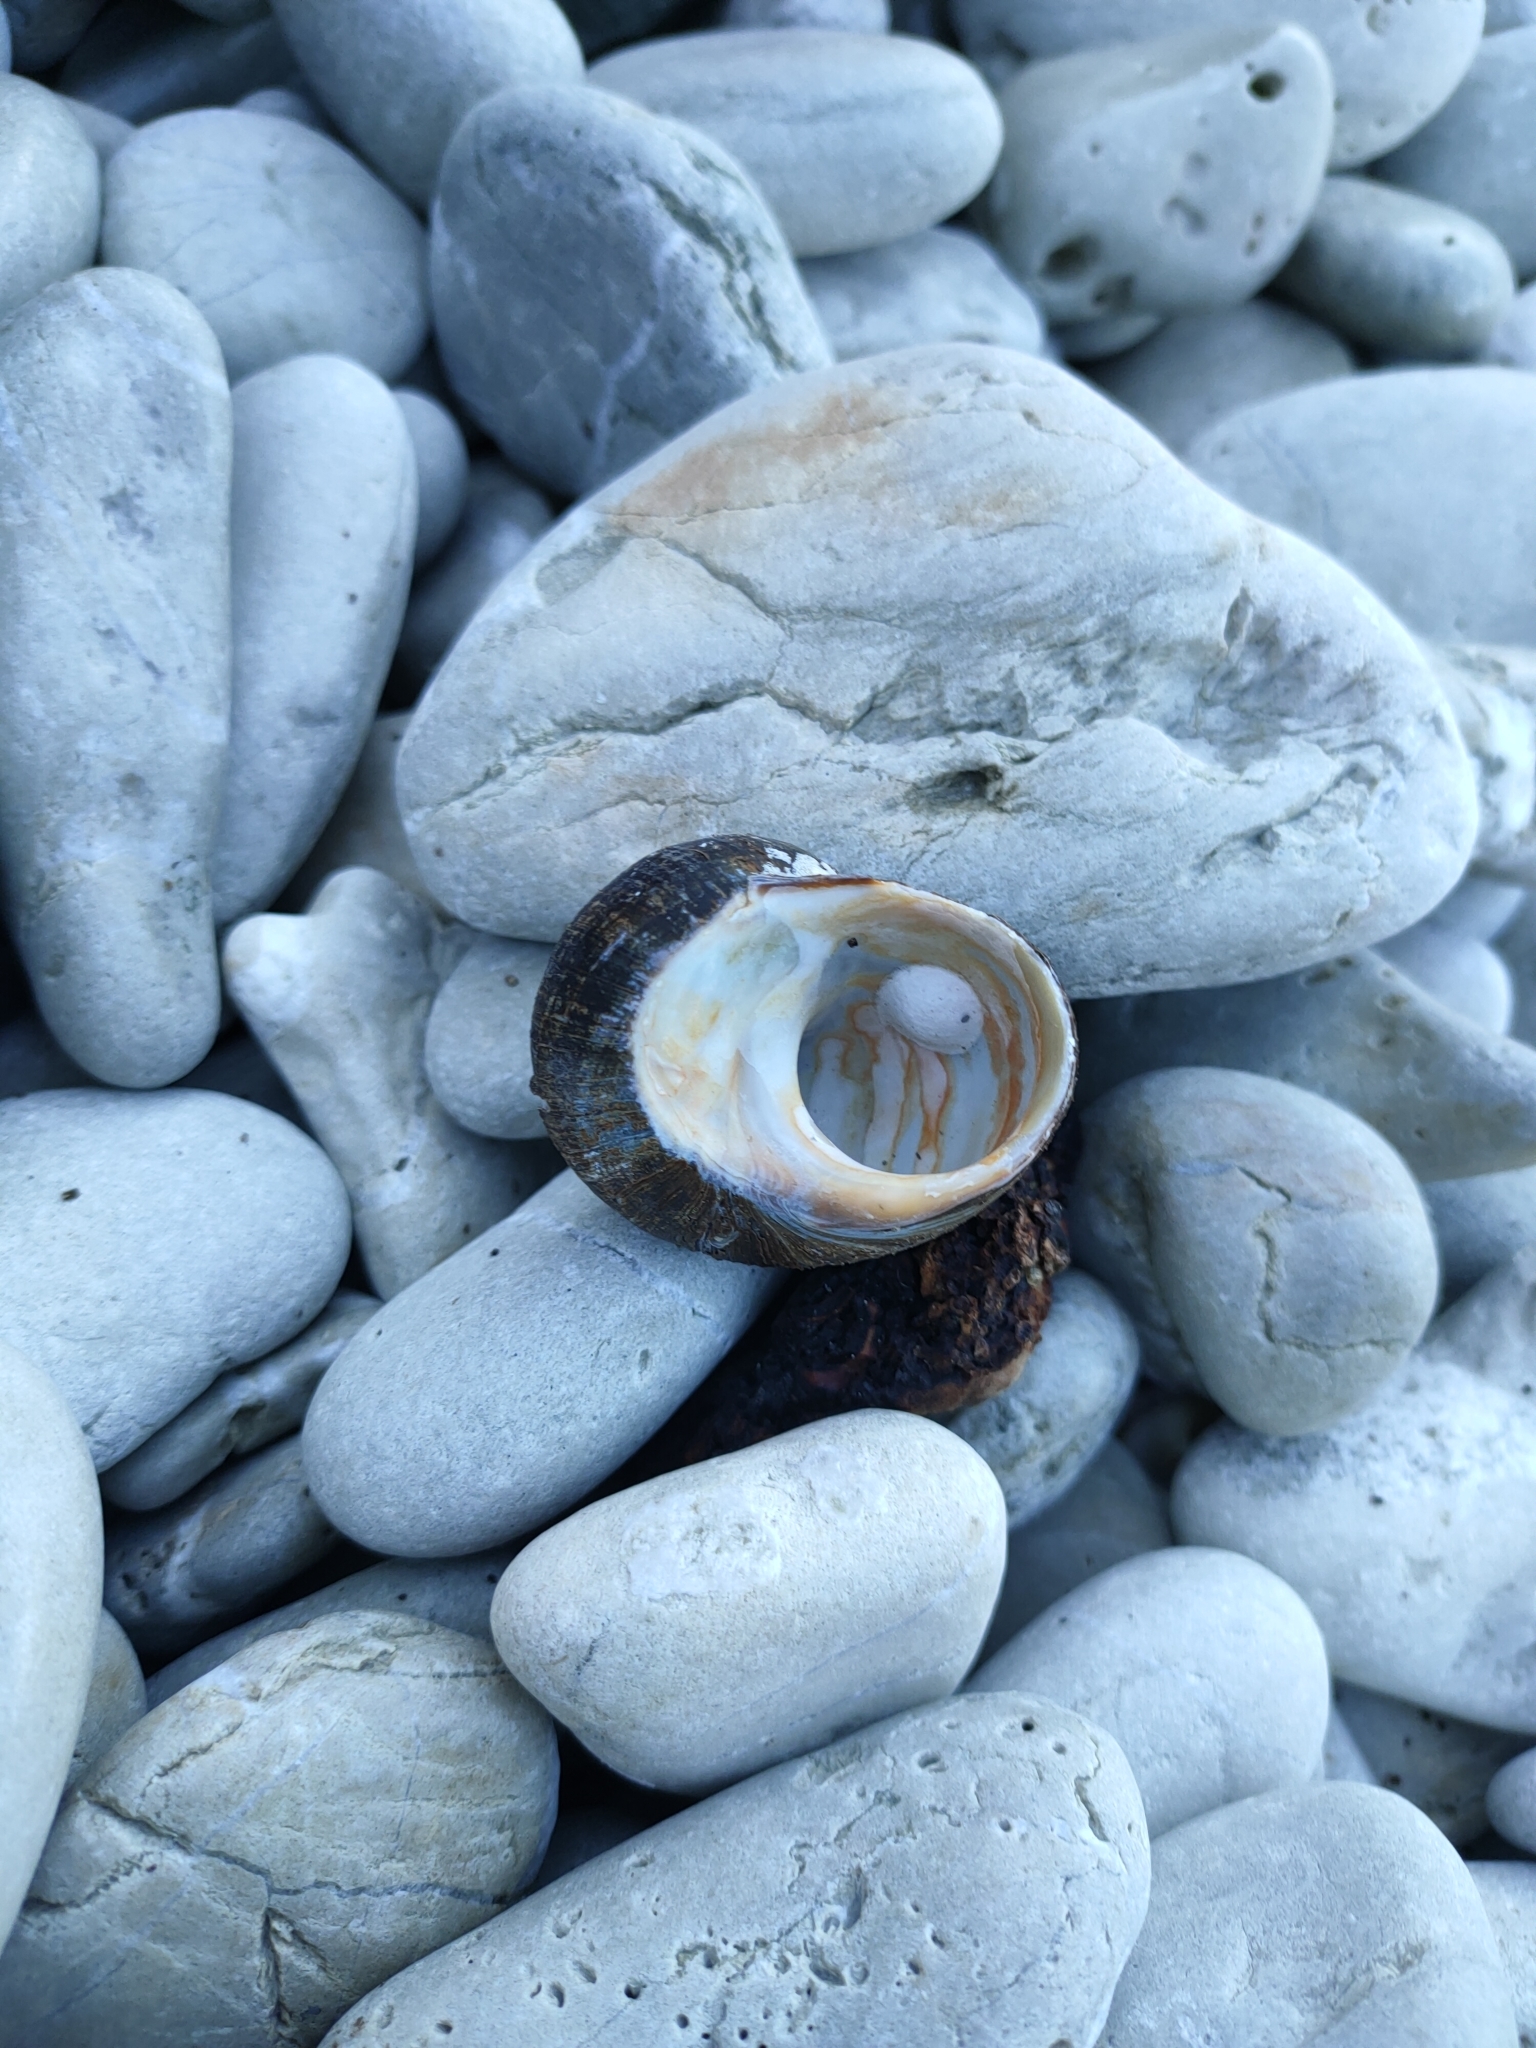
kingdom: Animalia
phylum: Mollusca
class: Gastropoda
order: Trochida
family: Turbinidae
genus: Lunella
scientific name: Lunella smaragda
